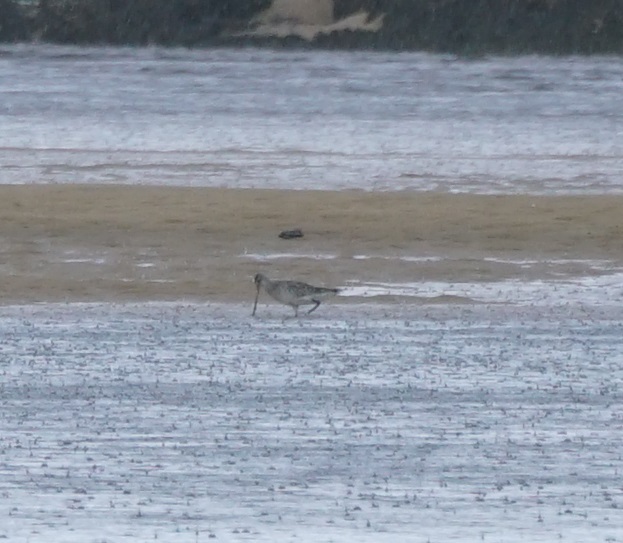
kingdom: Animalia
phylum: Chordata
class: Aves
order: Charadriiformes
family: Scolopacidae
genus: Limosa
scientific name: Limosa lapponica
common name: Bar-tailed godwit
